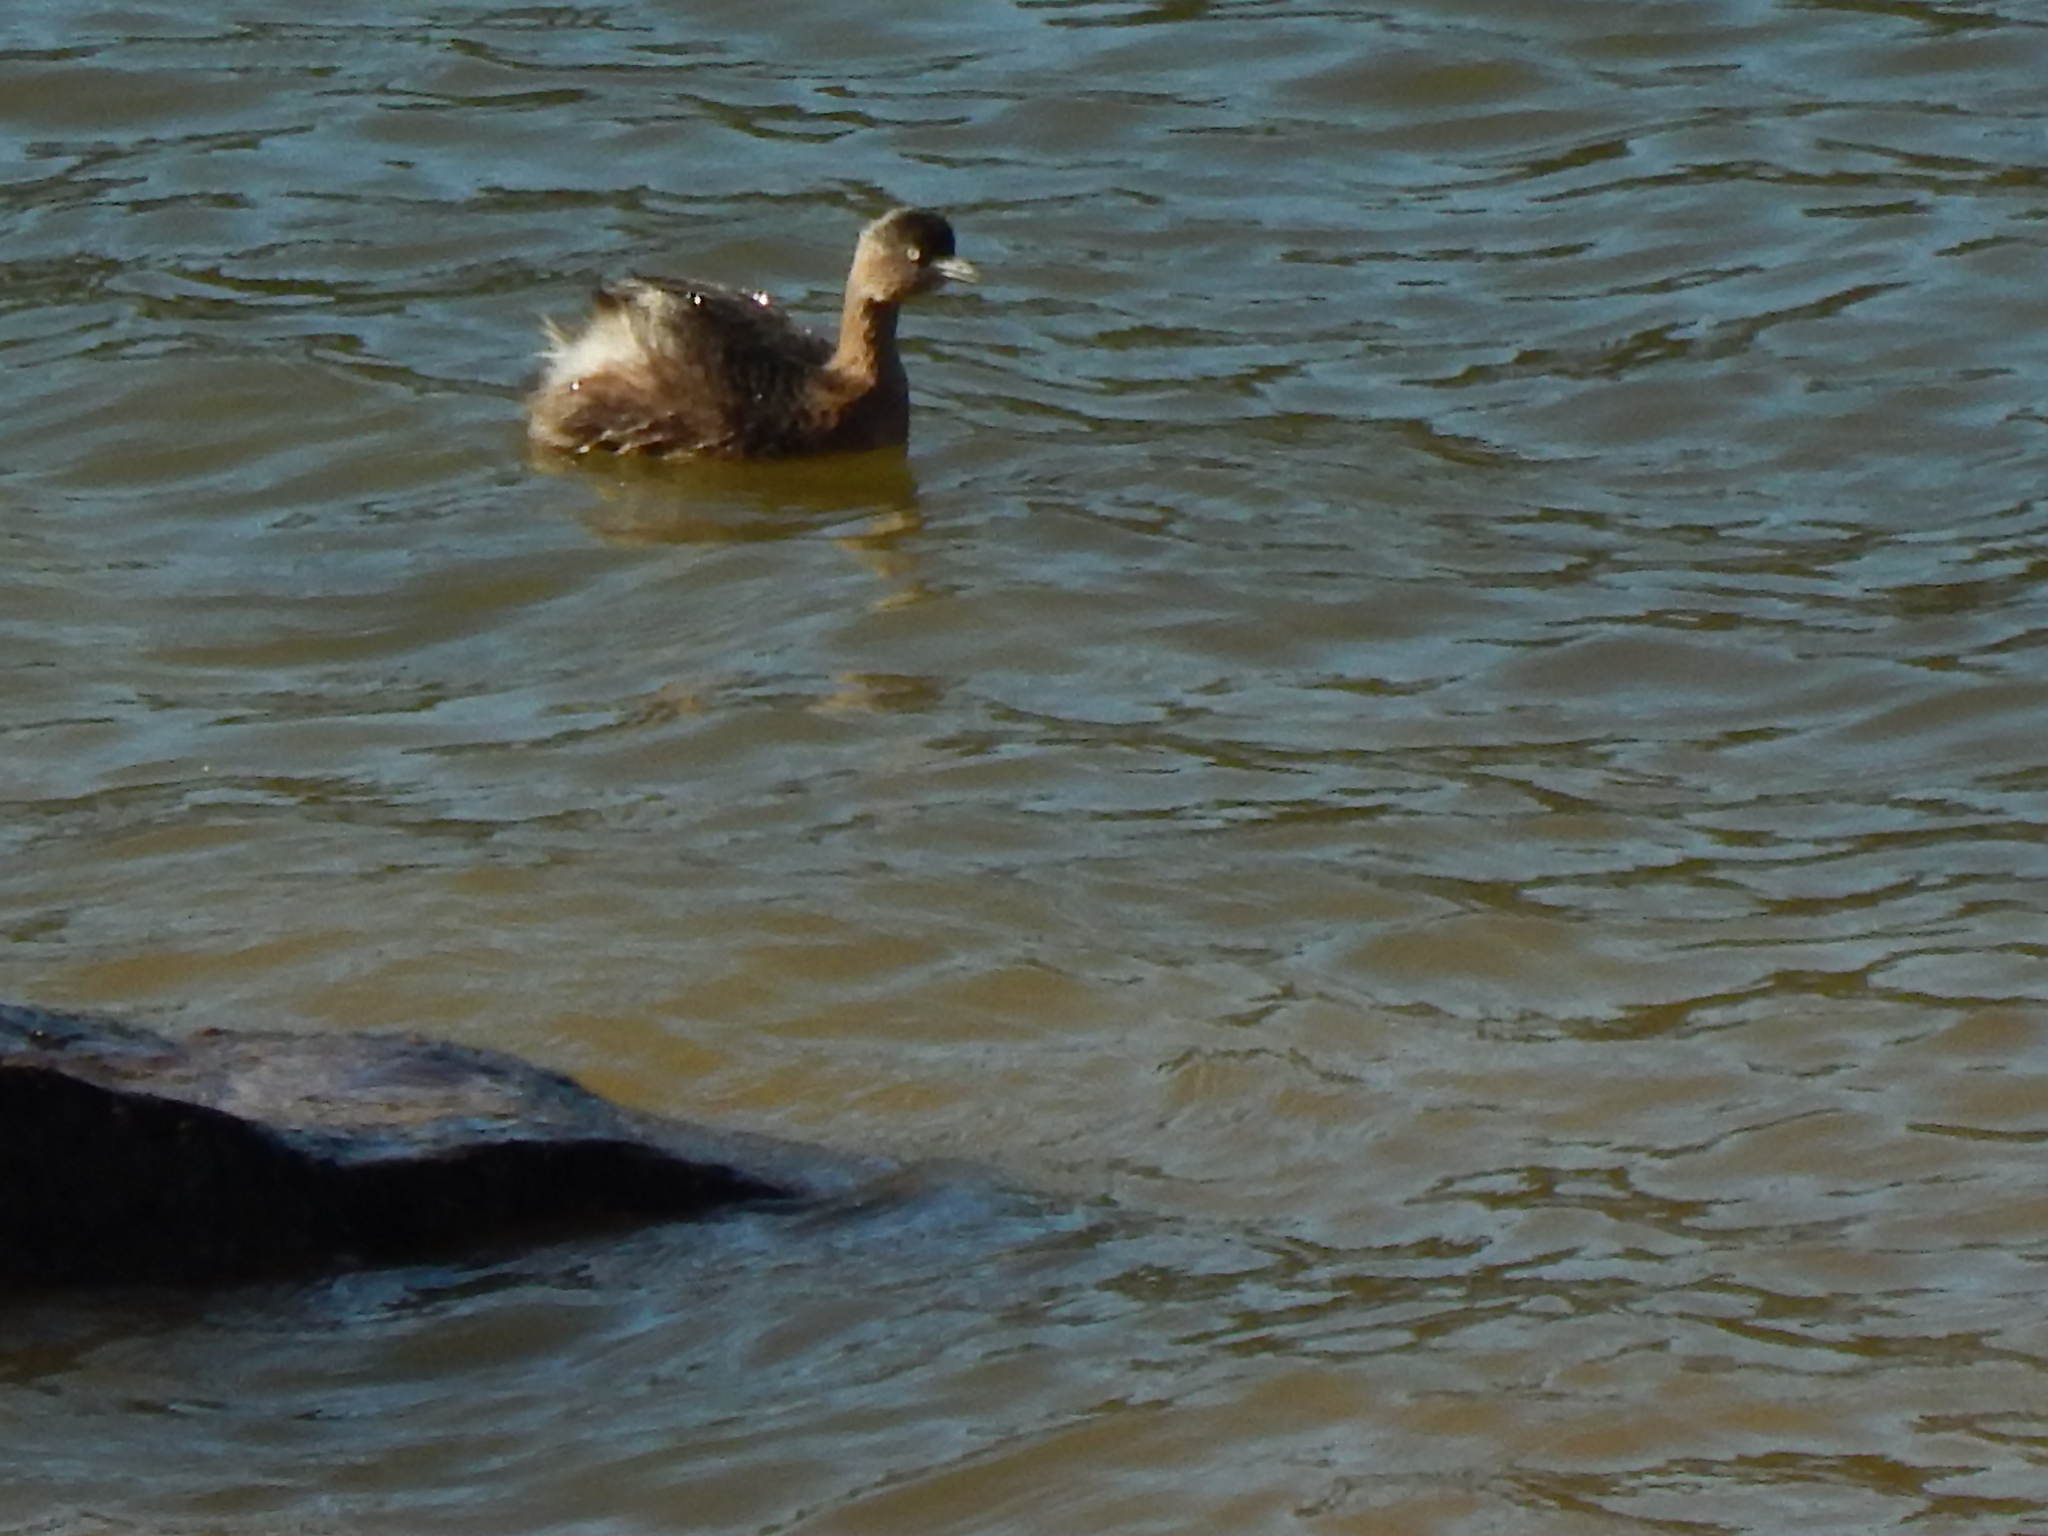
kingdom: Animalia
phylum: Chordata
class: Aves
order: Podicipediformes
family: Podicipedidae
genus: Poliocephalus
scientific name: Poliocephalus rufopectus
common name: New zealand grebe
